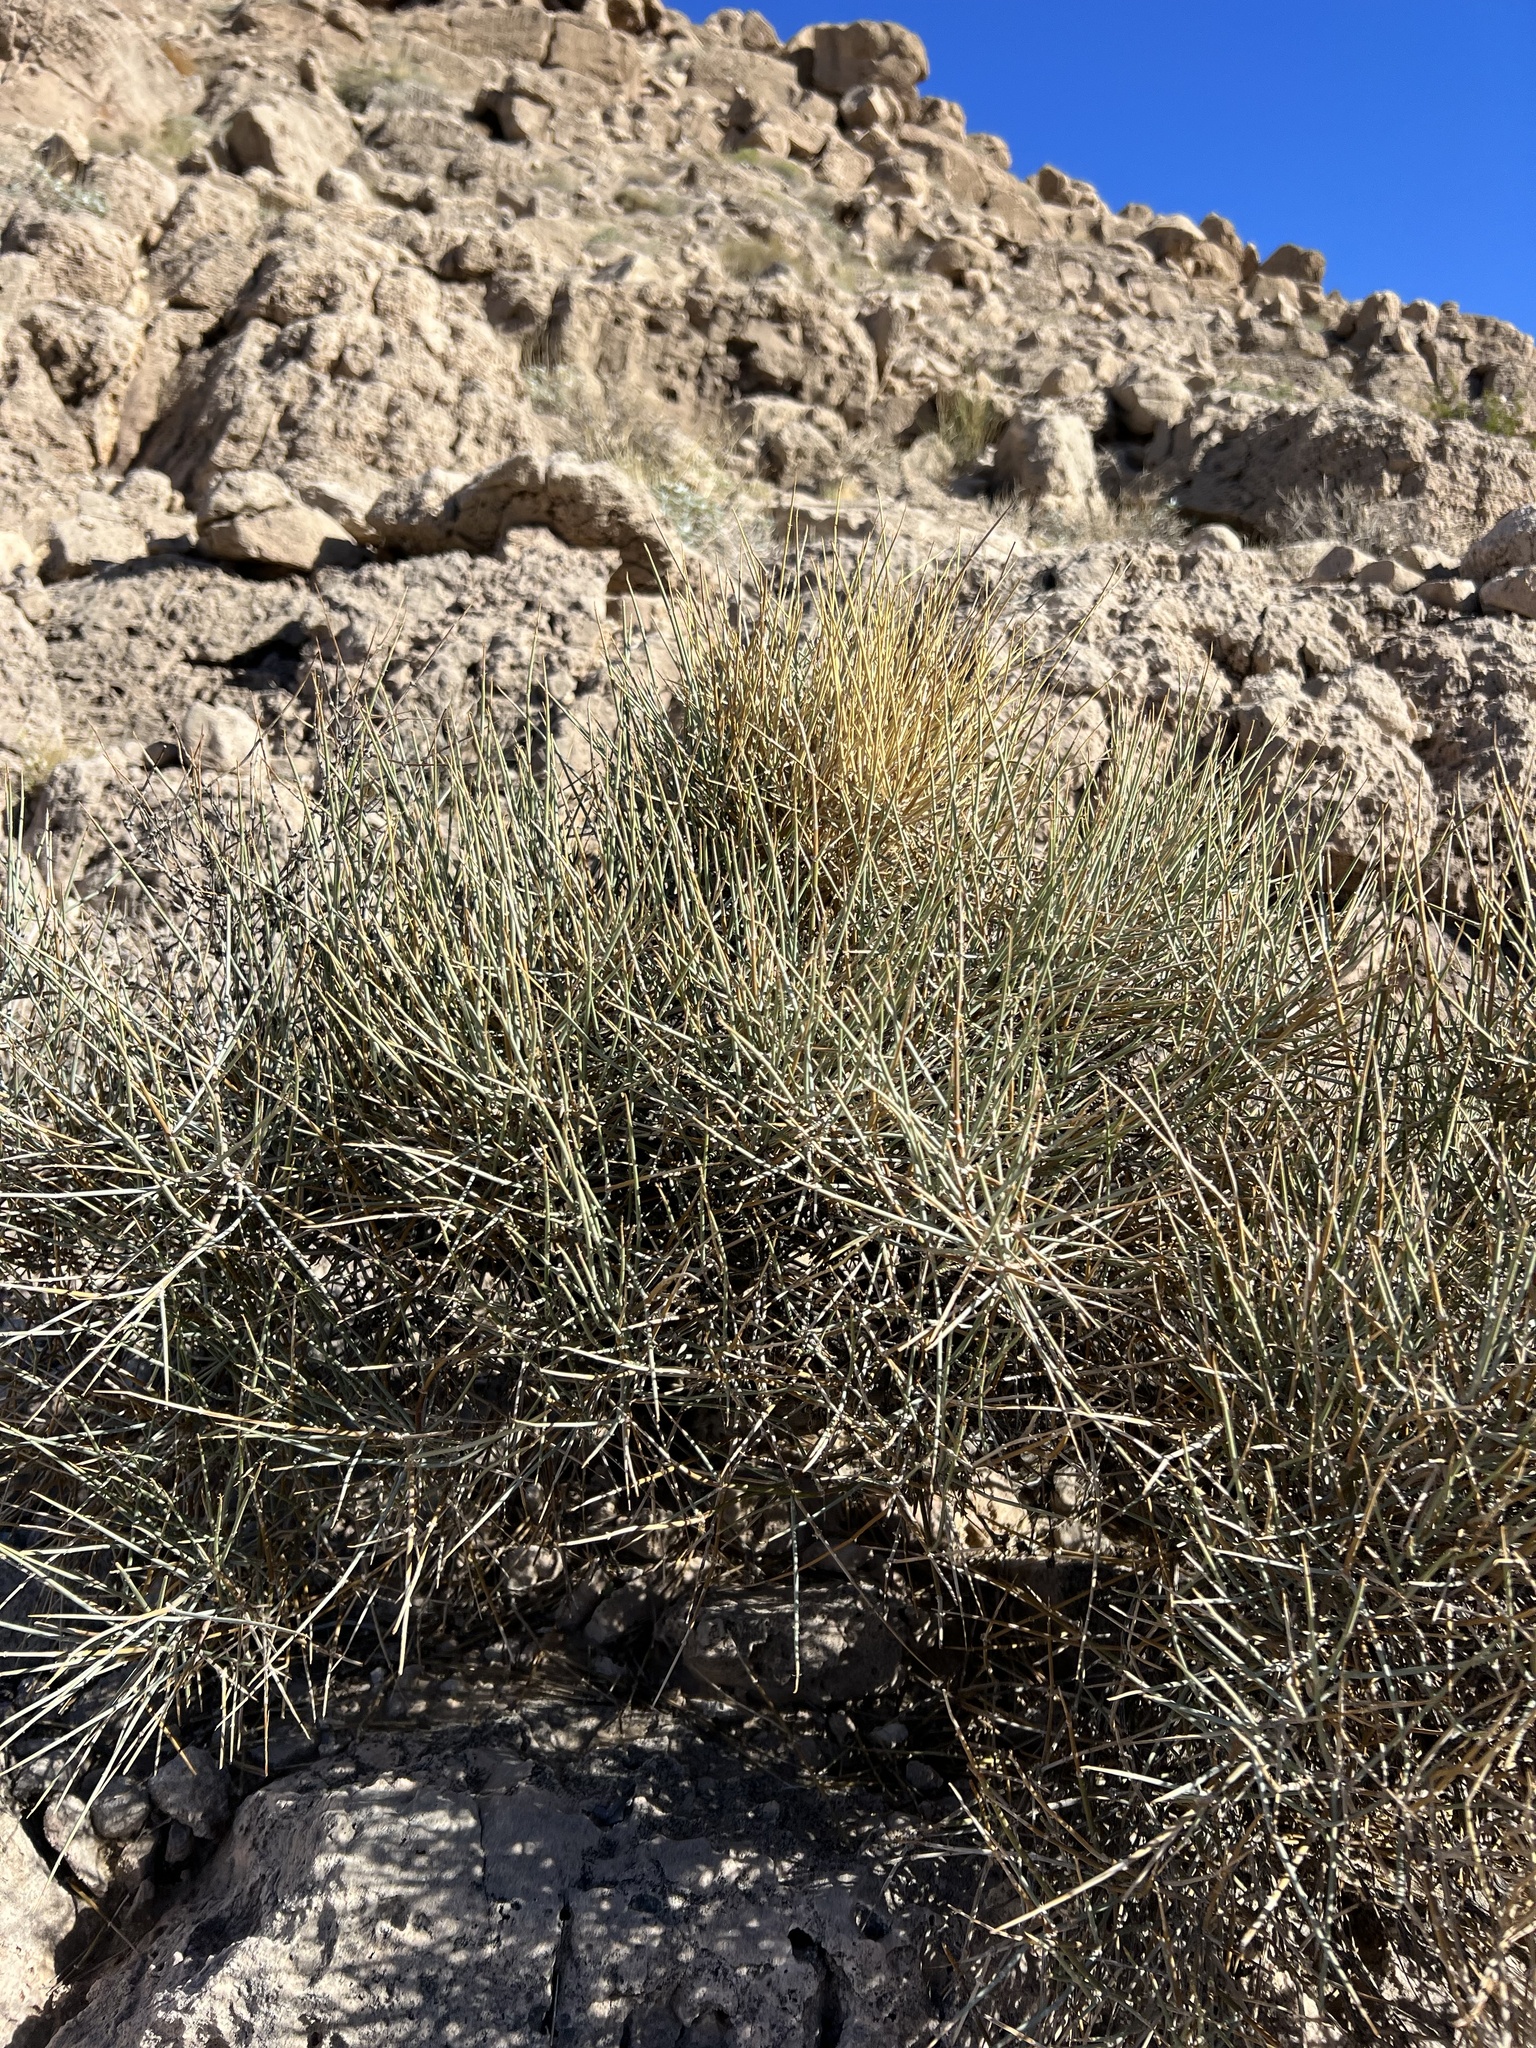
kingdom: Plantae
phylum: Tracheophyta
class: Gnetopsida
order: Ephedrales
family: Ephedraceae
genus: Ephedra
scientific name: Ephedra nevadensis
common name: Gray ephedra
